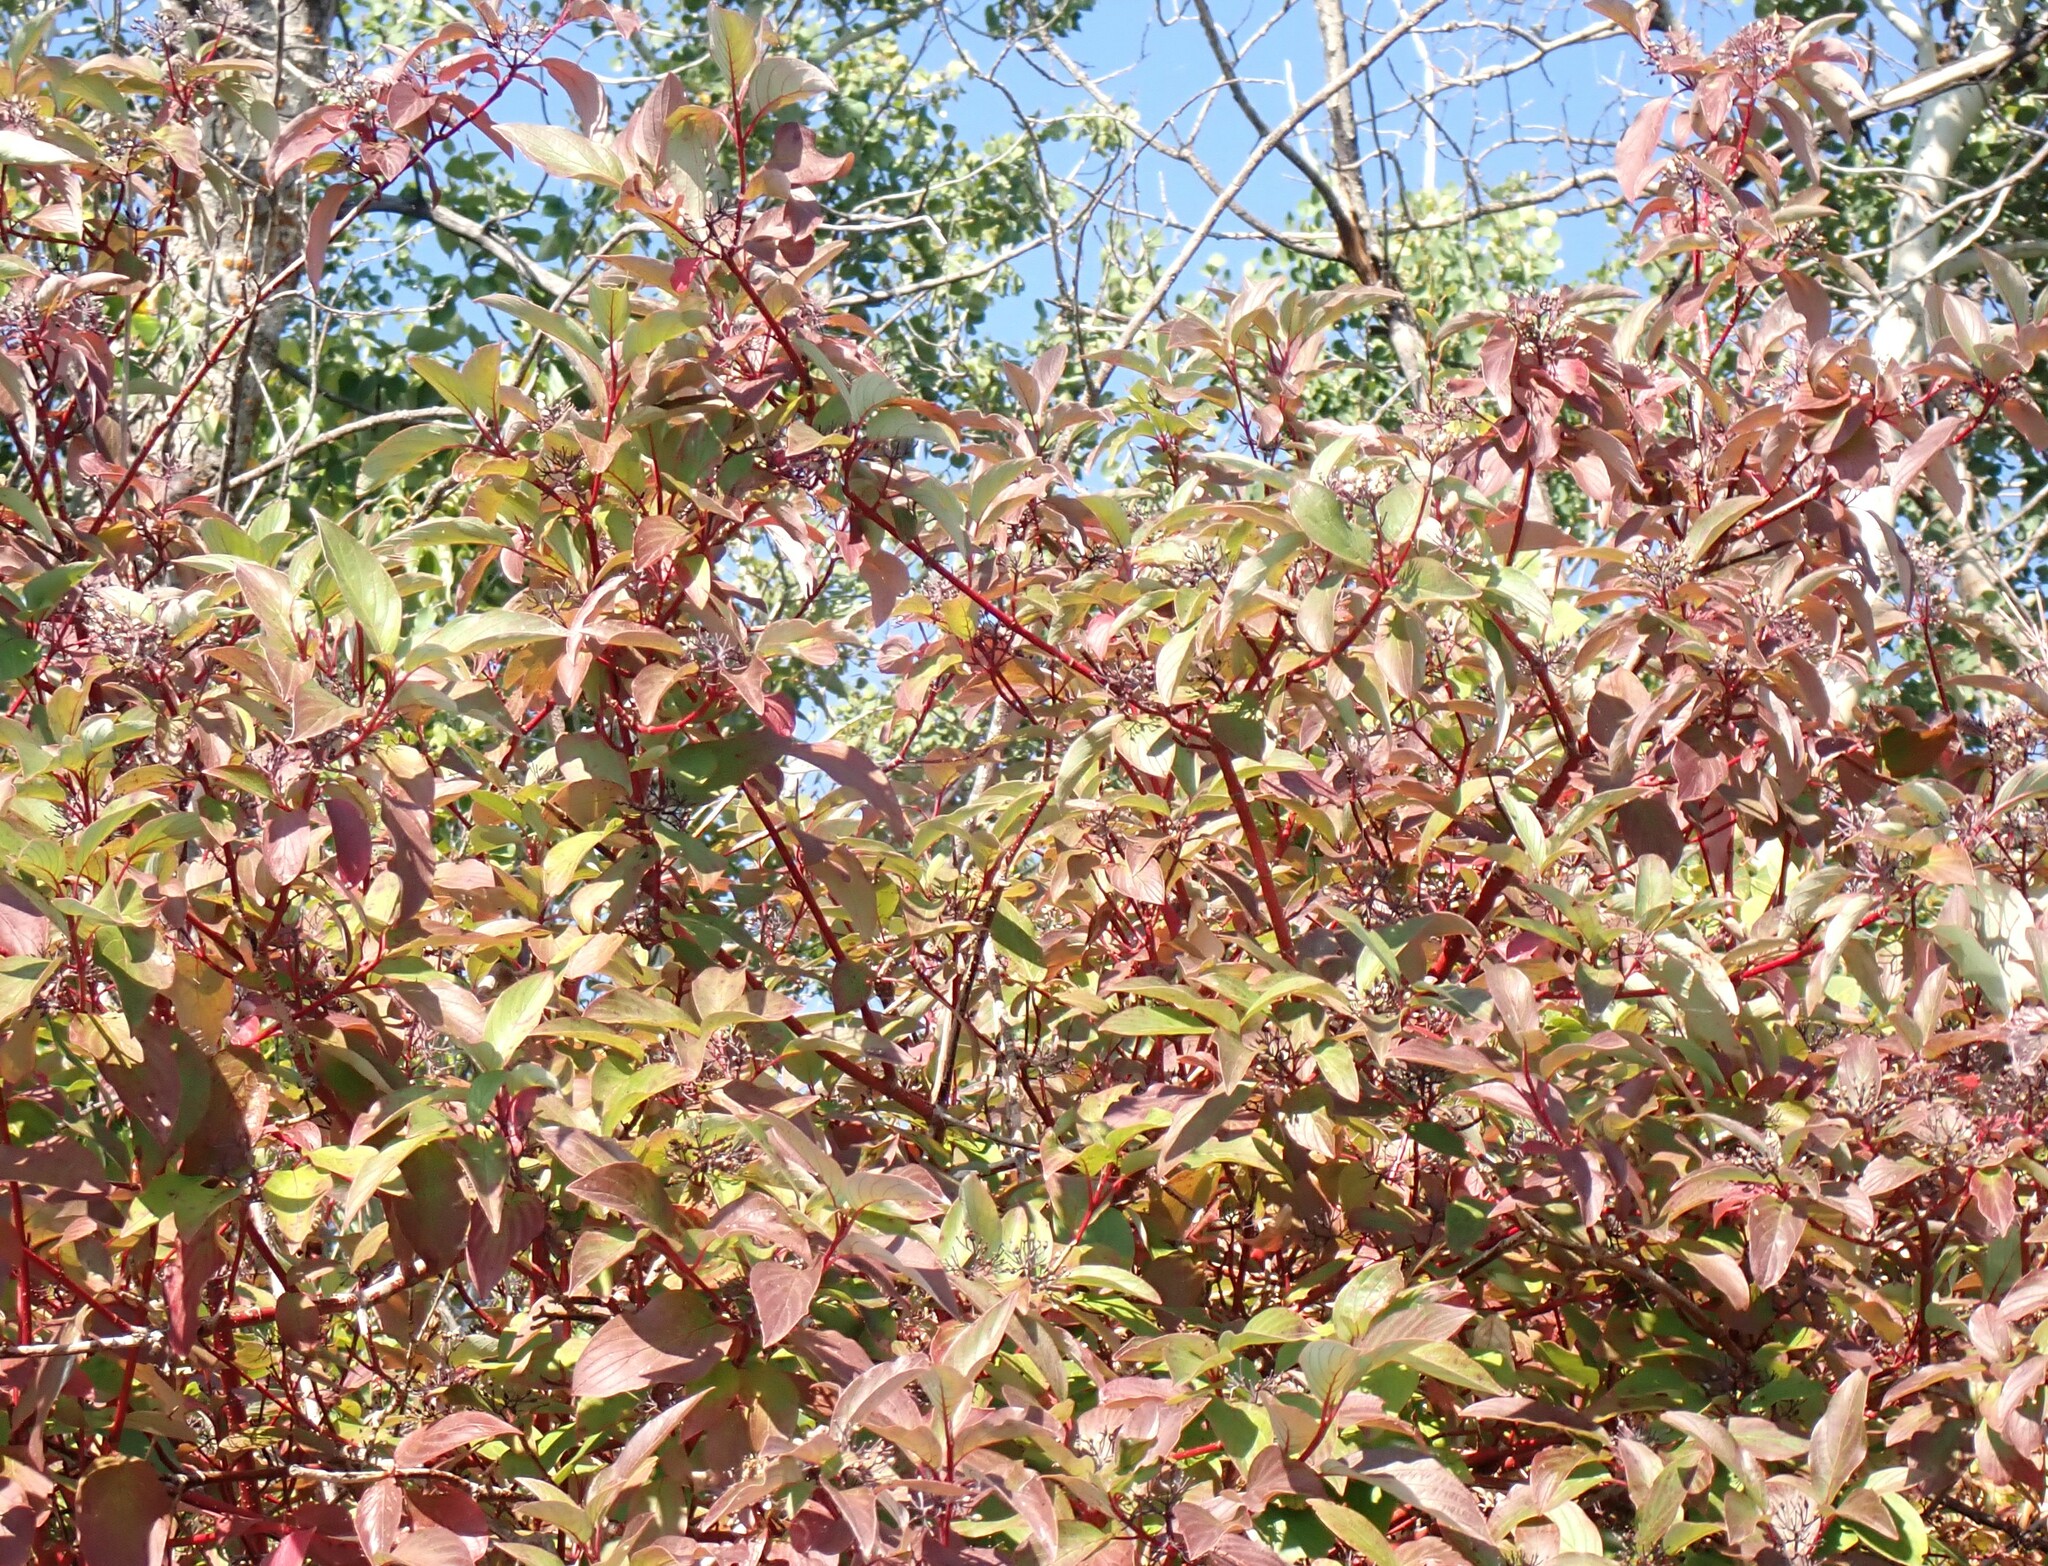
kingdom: Plantae
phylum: Tracheophyta
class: Magnoliopsida
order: Cornales
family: Cornaceae
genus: Cornus
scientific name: Cornus sericea
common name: Red-osier dogwood
